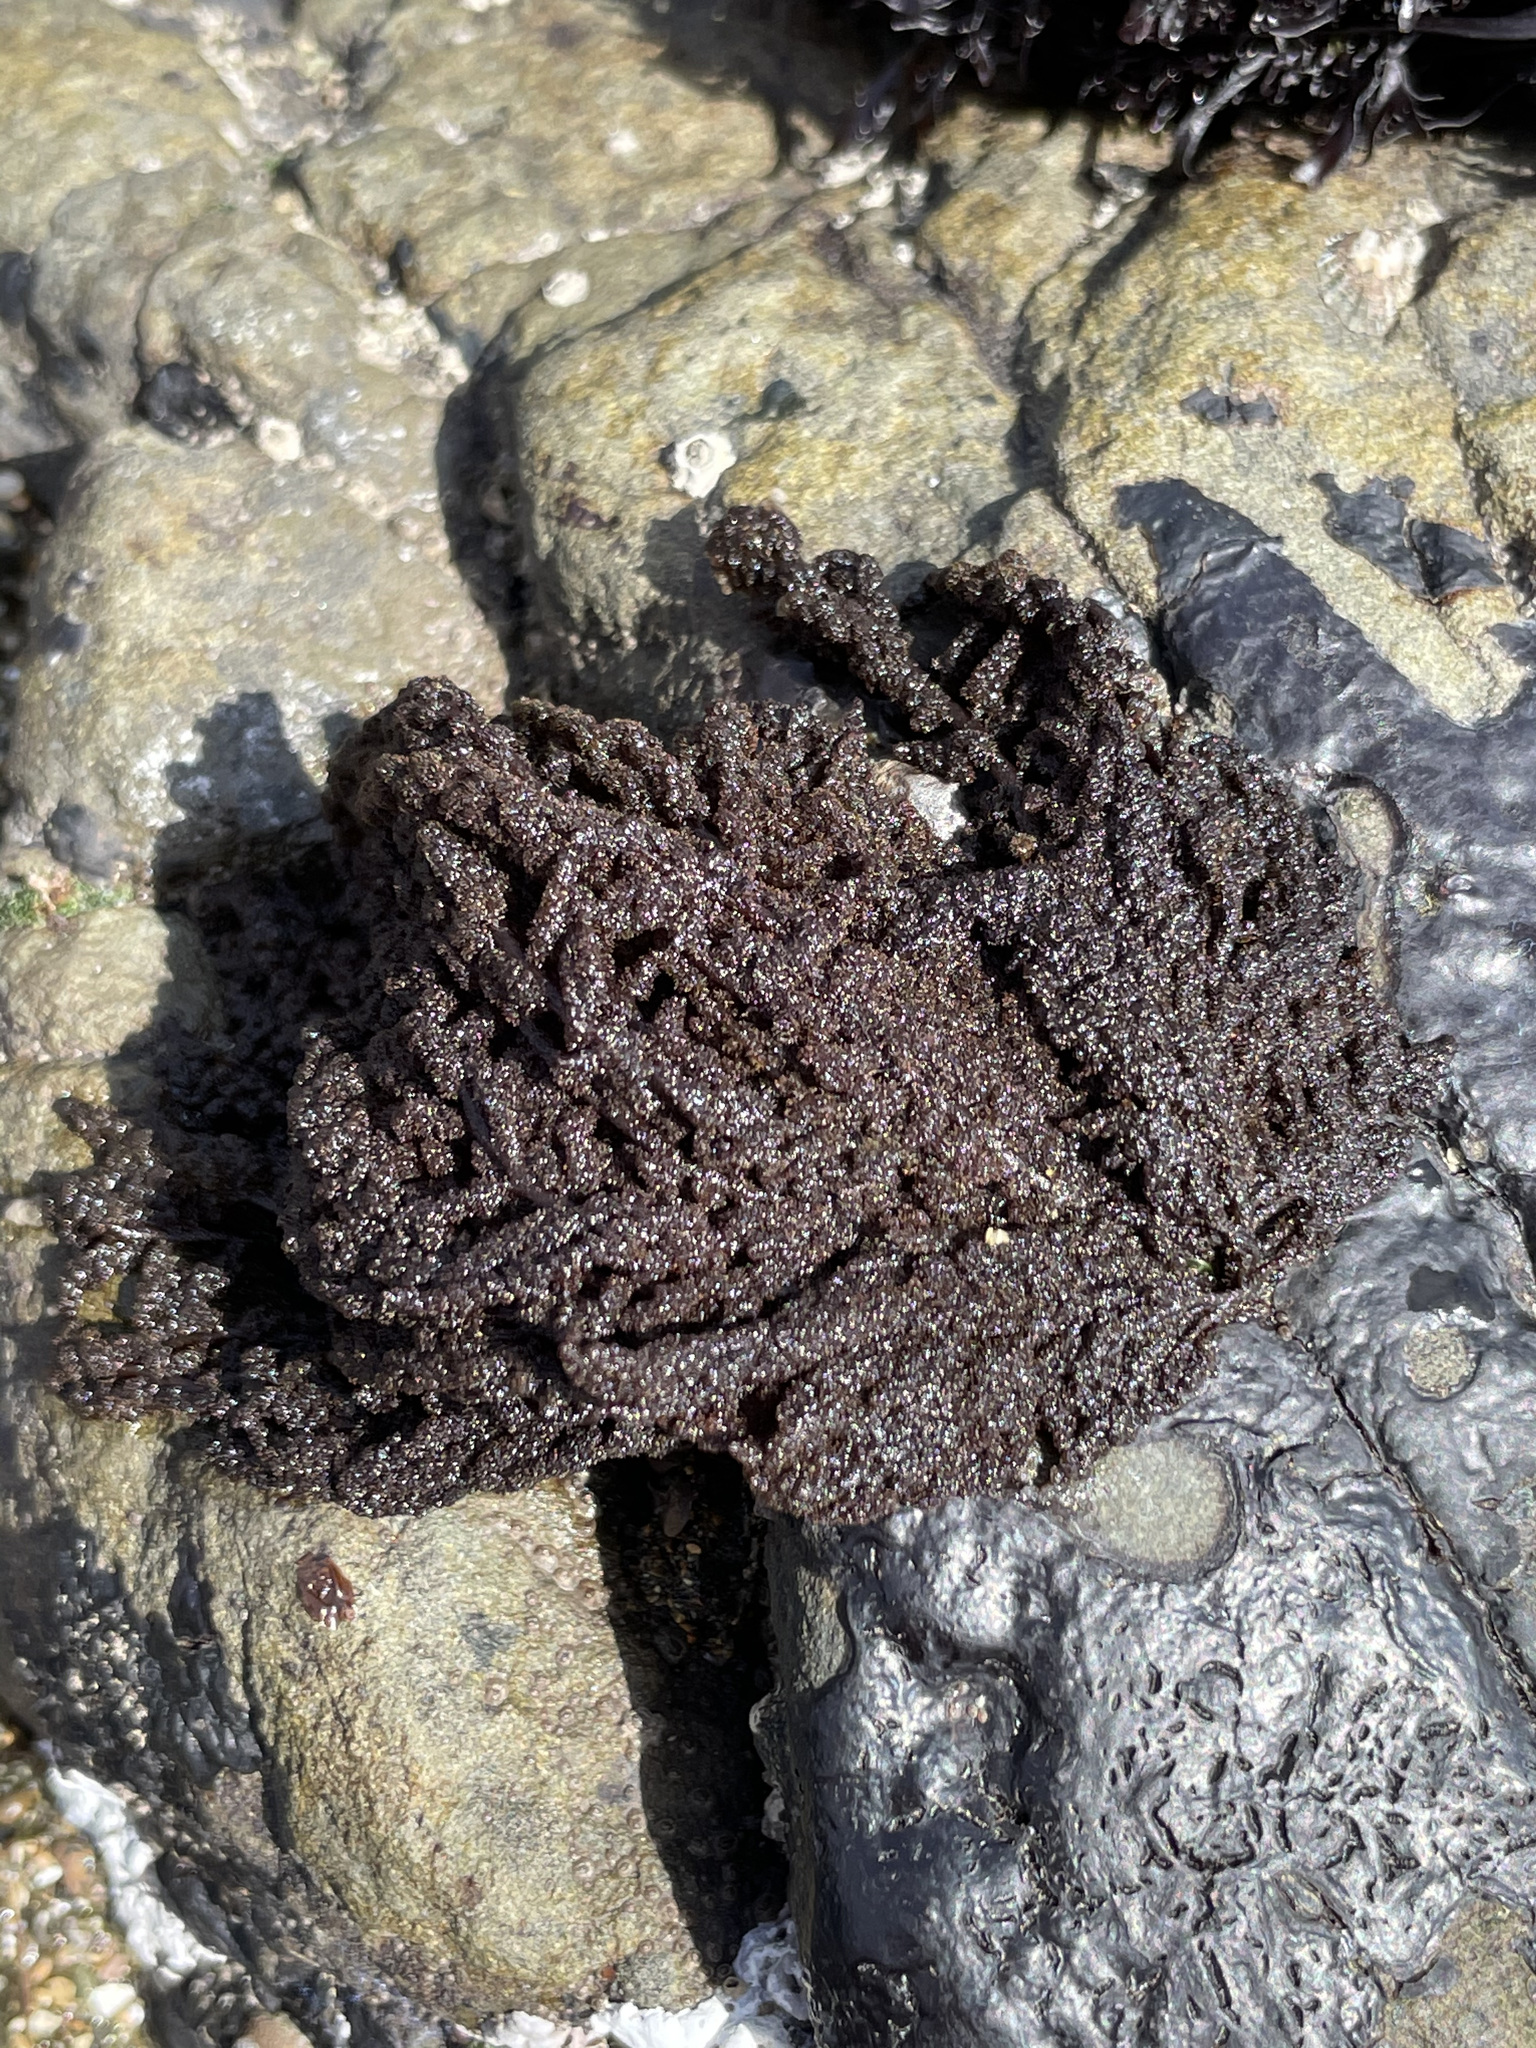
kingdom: Plantae
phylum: Rhodophyta
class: Florideophyceae
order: Ceramiales
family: Callithamniaceae
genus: Callithamnion
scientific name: Callithamnion pikeanum
